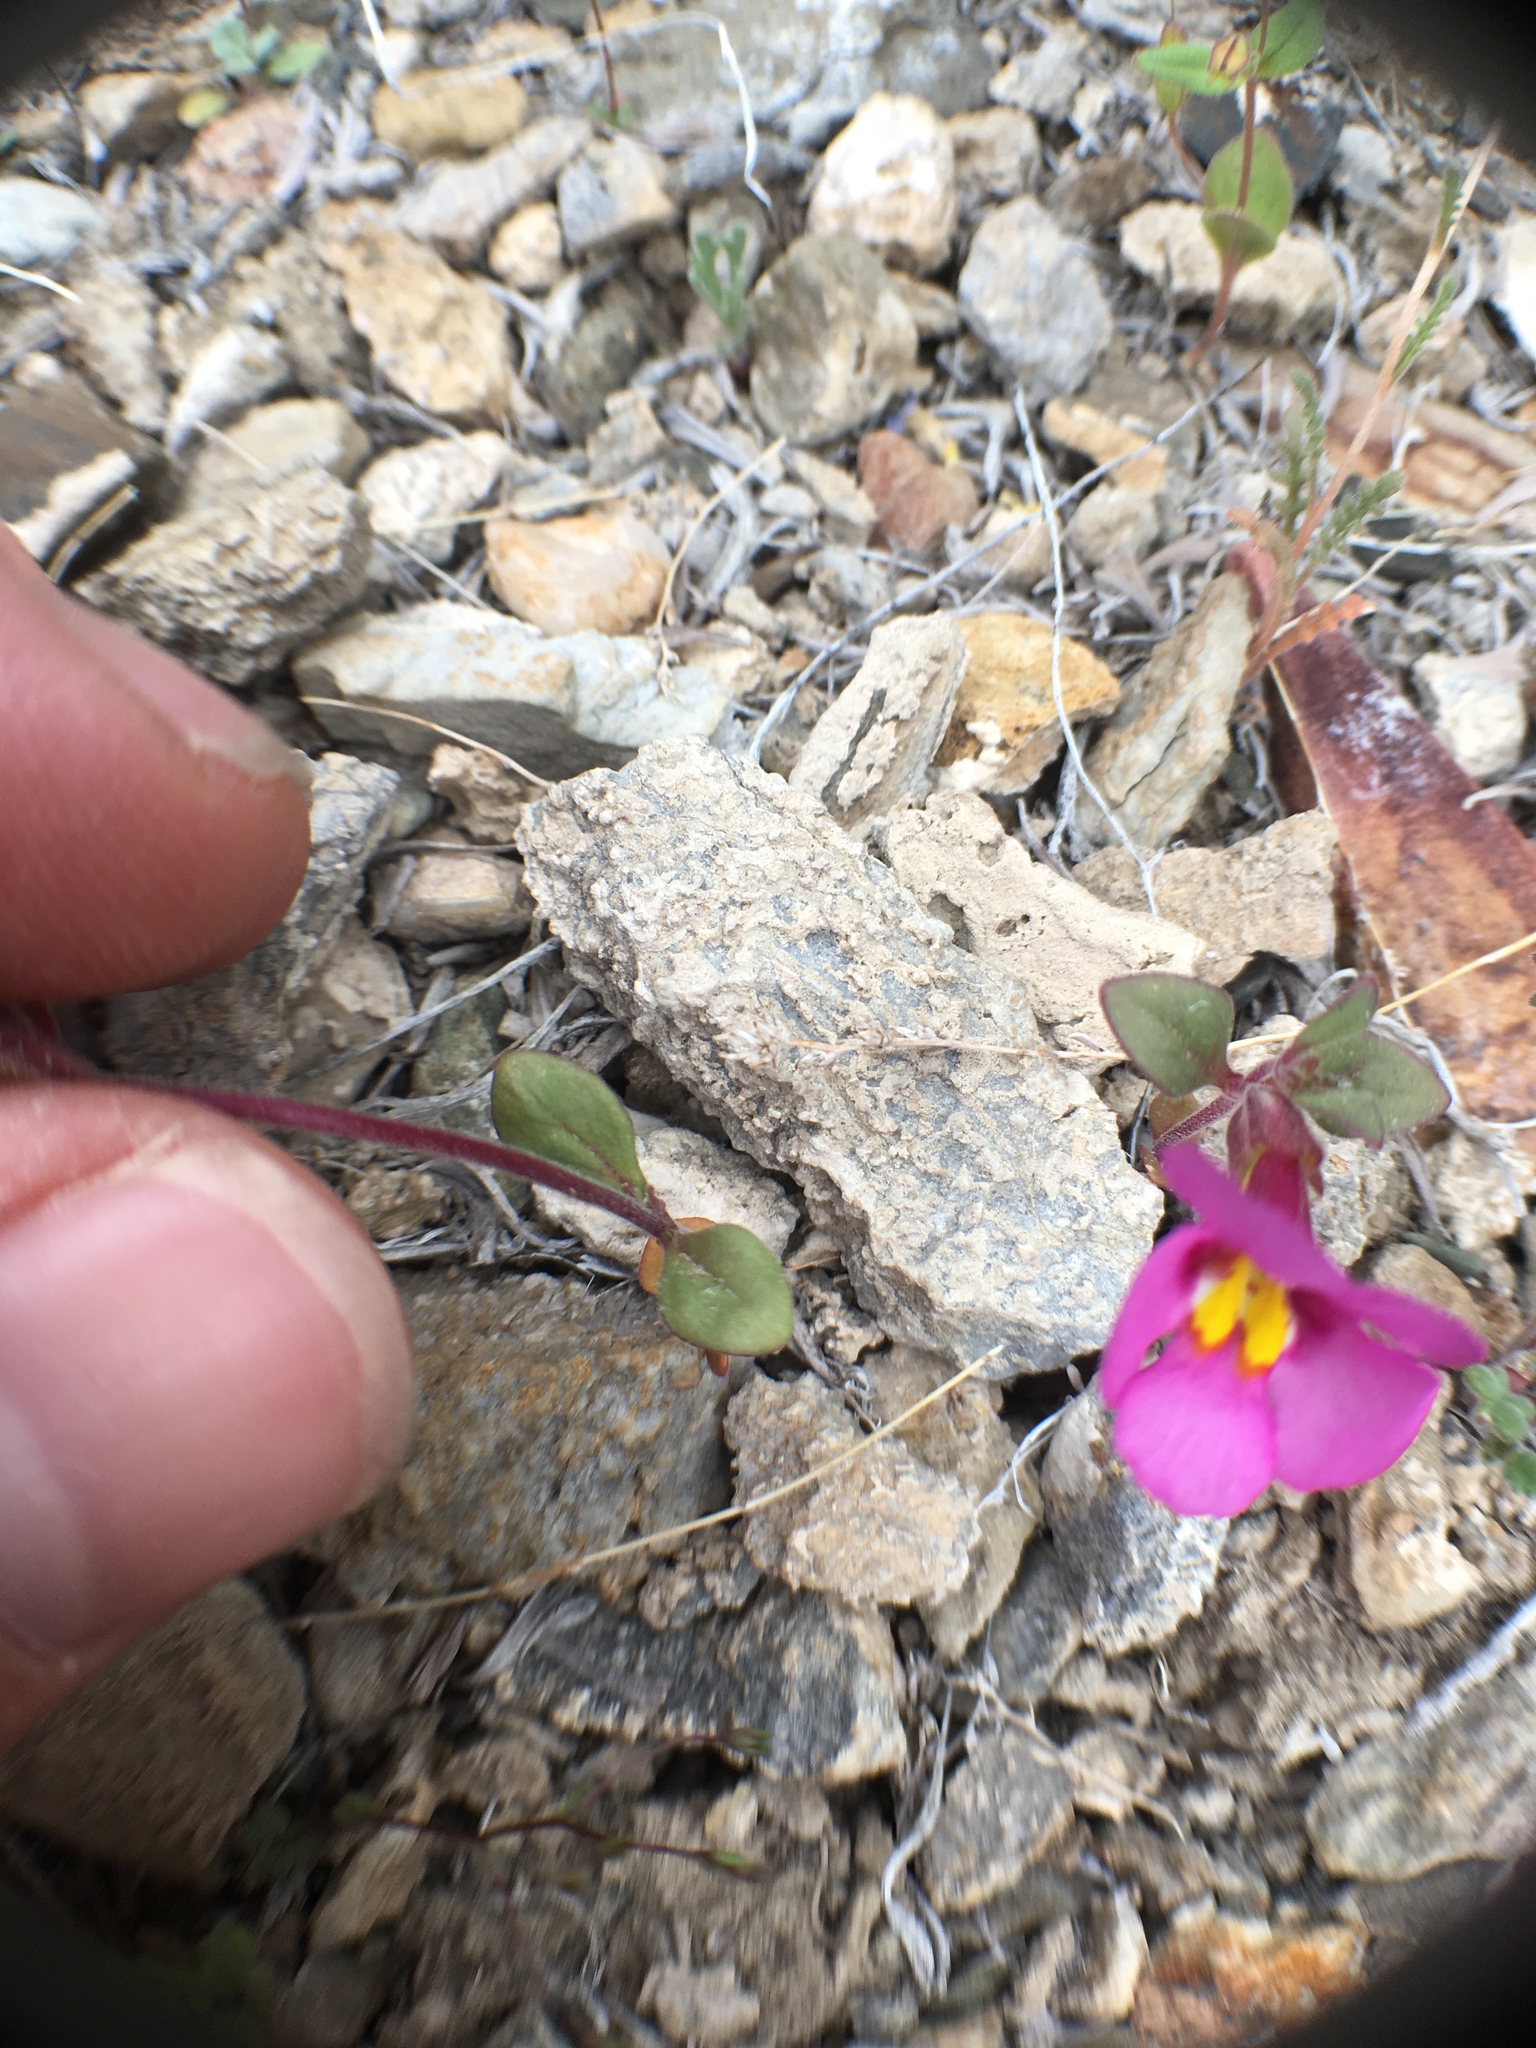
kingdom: Plantae
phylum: Tracheophyta
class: Magnoliopsida
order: Lamiales
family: Phrymaceae
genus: Diplacus
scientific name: Diplacus parryi
